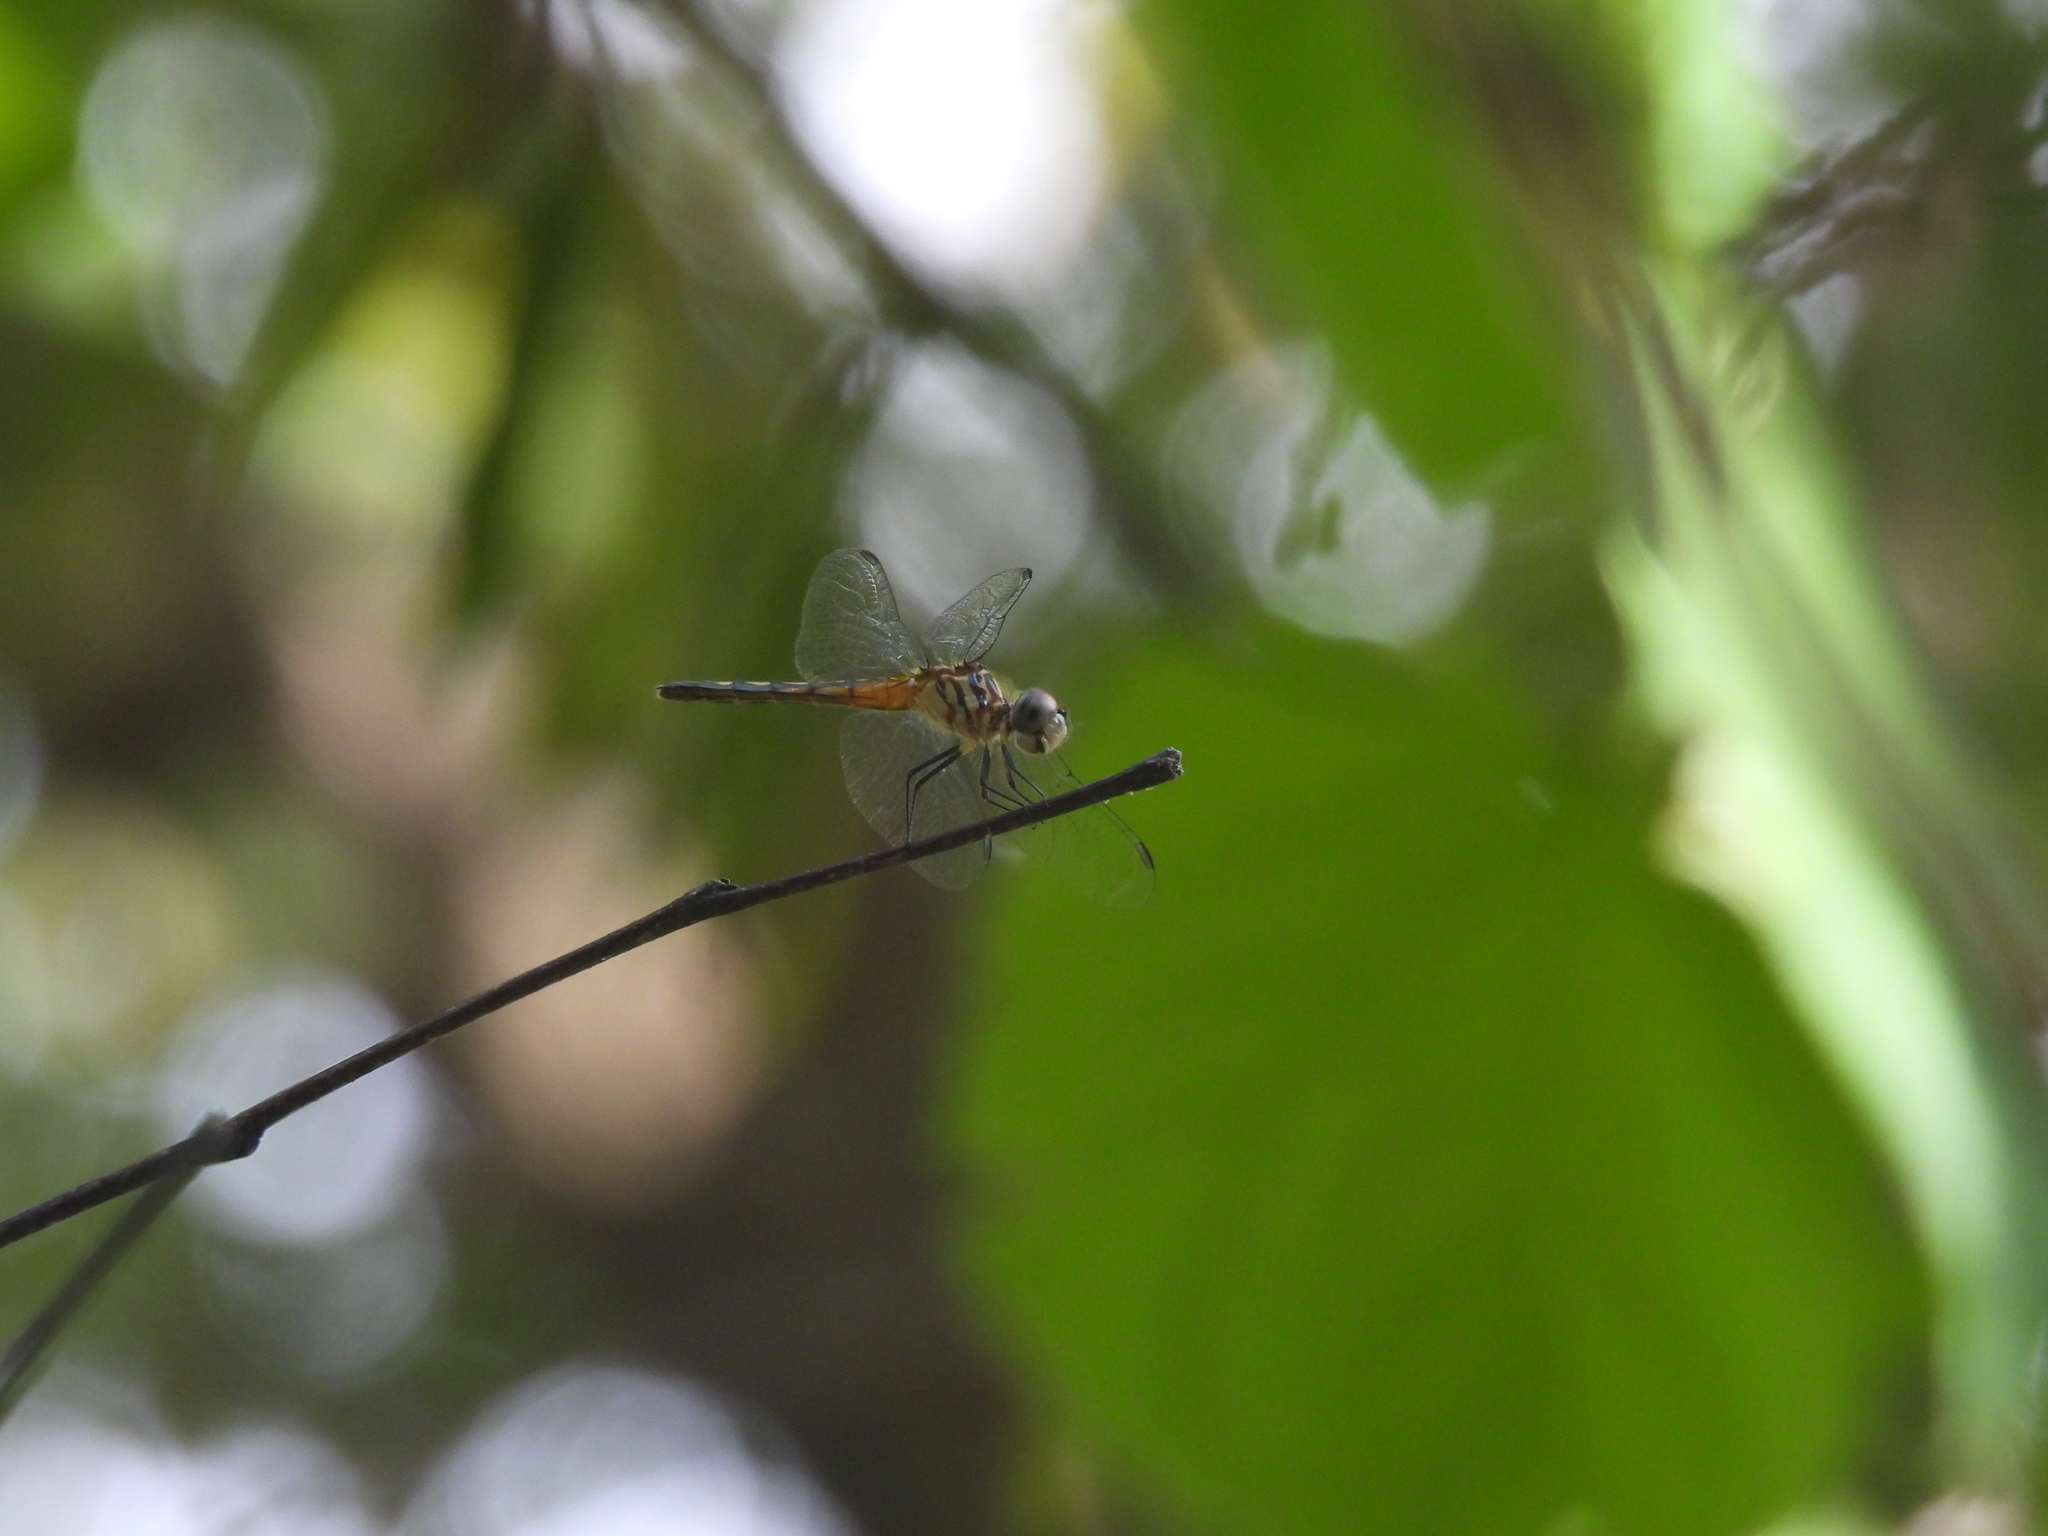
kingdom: Animalia
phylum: Arthropoda
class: Insecta
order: Odonata
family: Libellulidae
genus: Pachydiplax
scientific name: Pachydiplax longipennis
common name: Blue dasher
